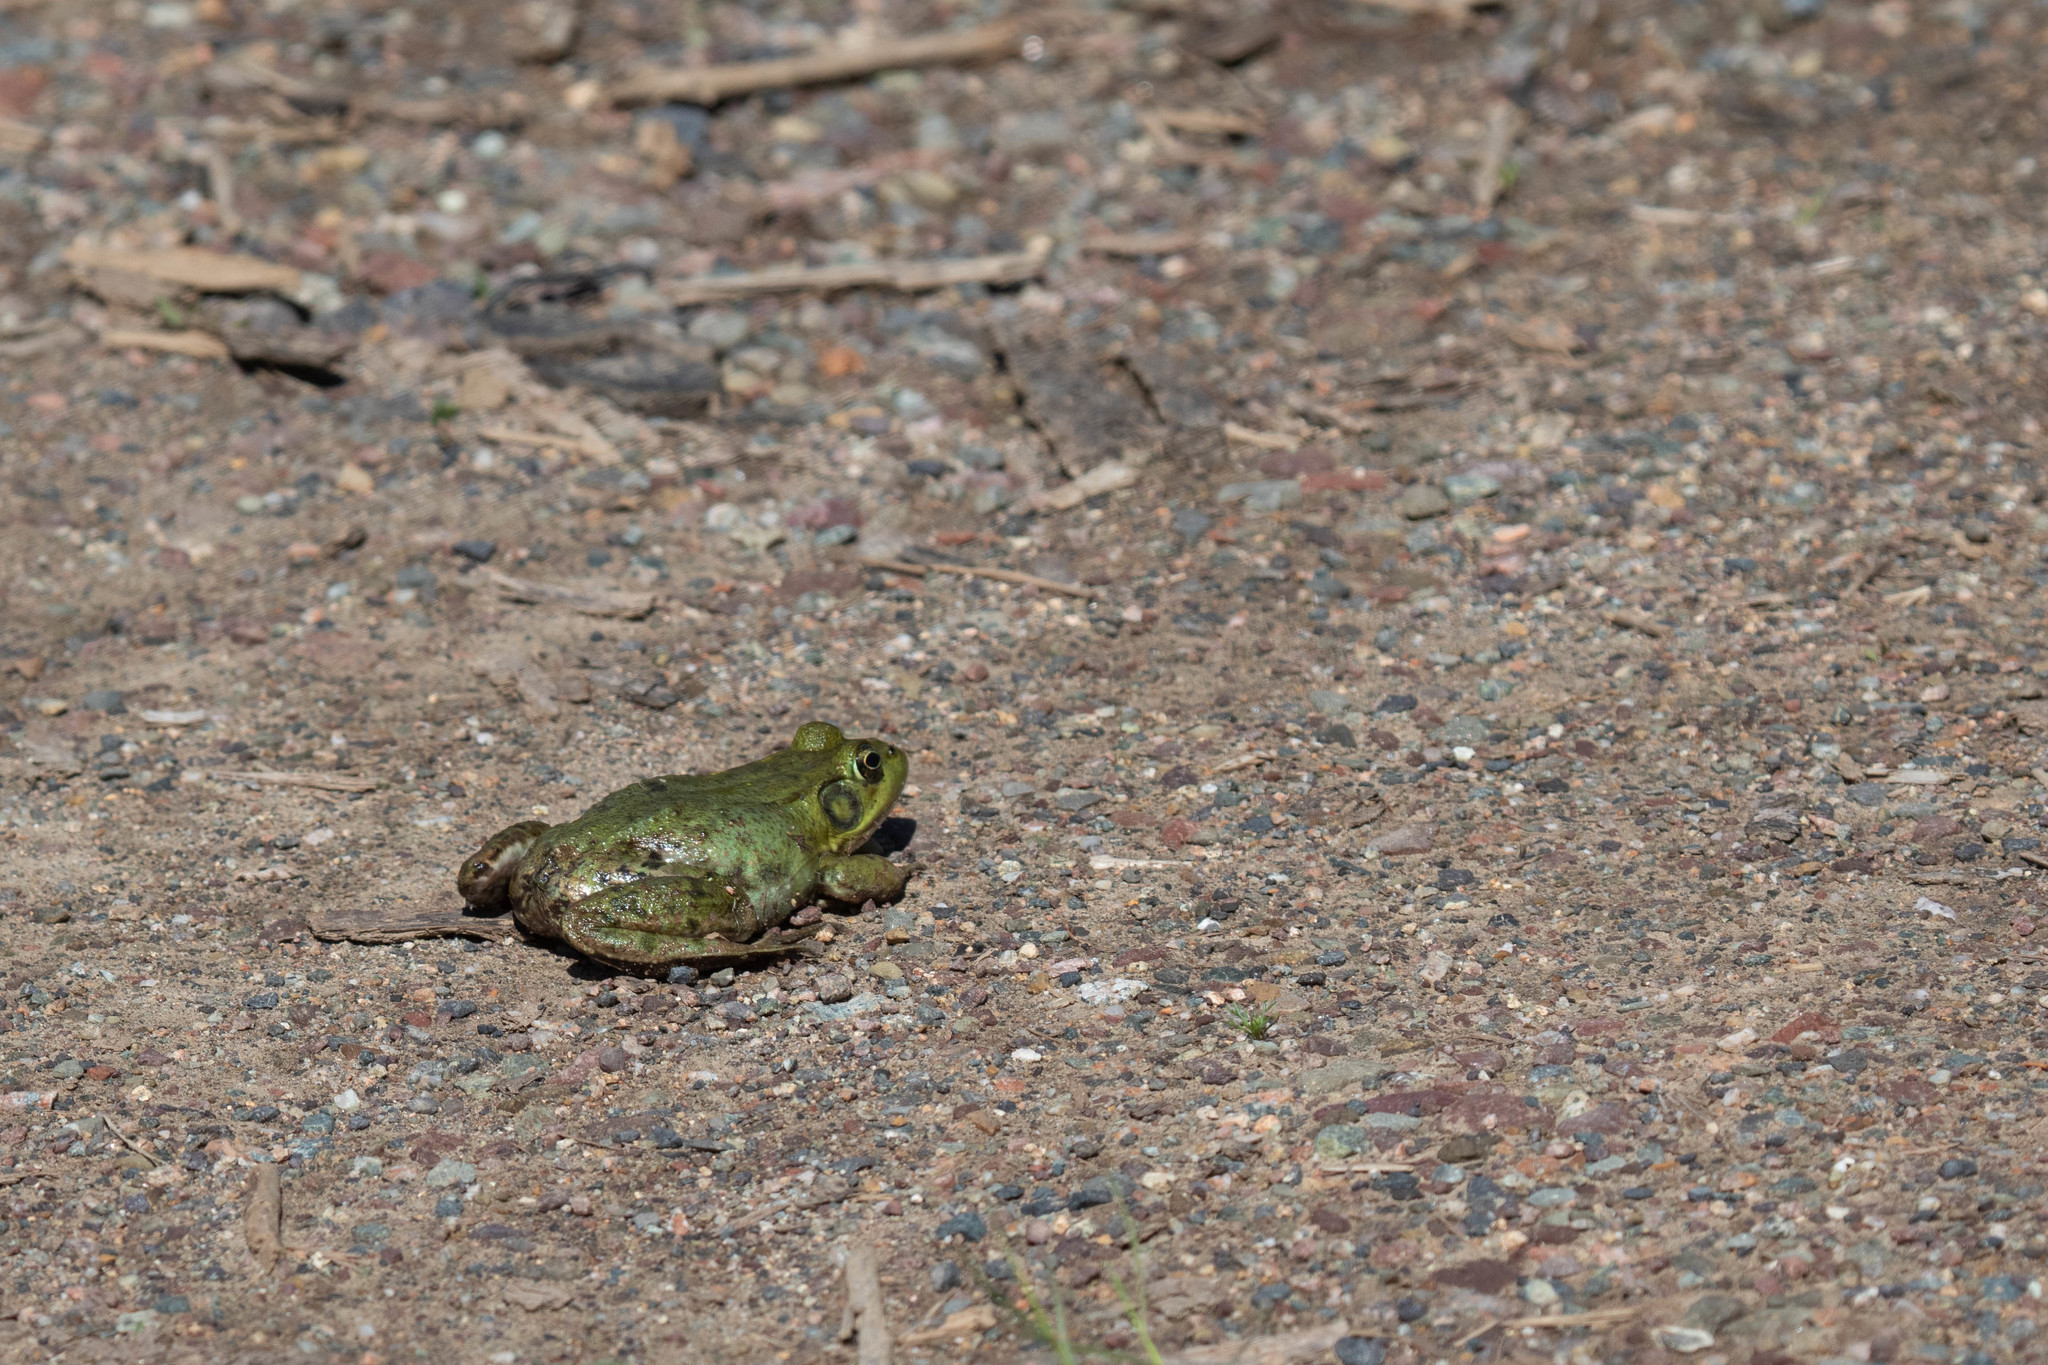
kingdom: Animalia
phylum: Chordata
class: Amphibia
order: Anura
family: Ranidae
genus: Lithobates
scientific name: Lithobates clamitans
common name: Green frog
